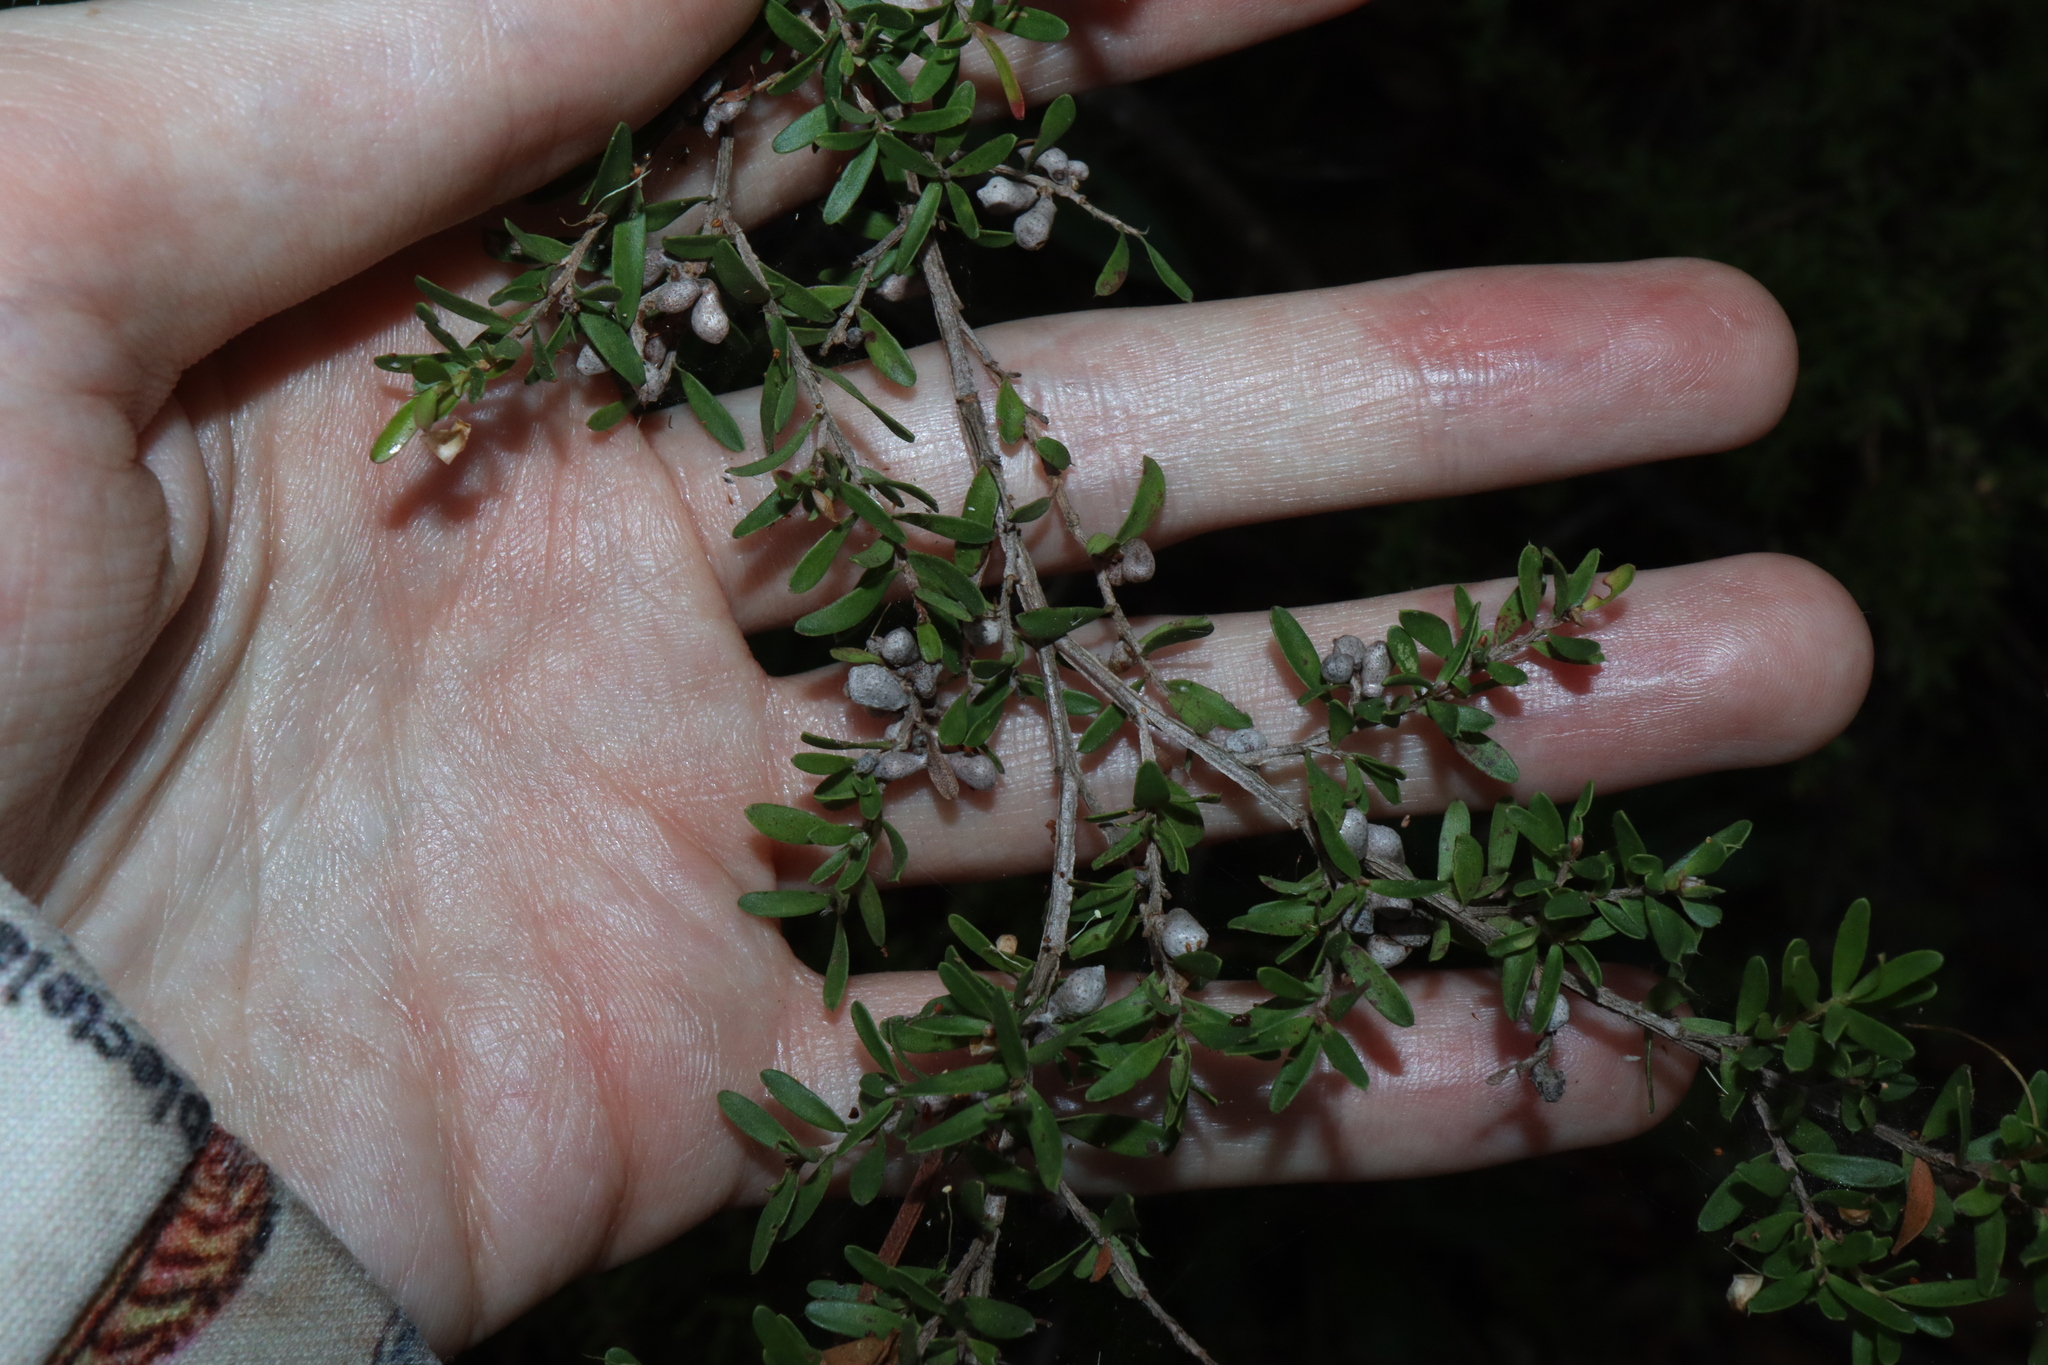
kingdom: Animalia
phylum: Arthropoda
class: Insecta
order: Hemiptera
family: Asterolecaniidae
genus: Eremococcus
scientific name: Eremococcus
